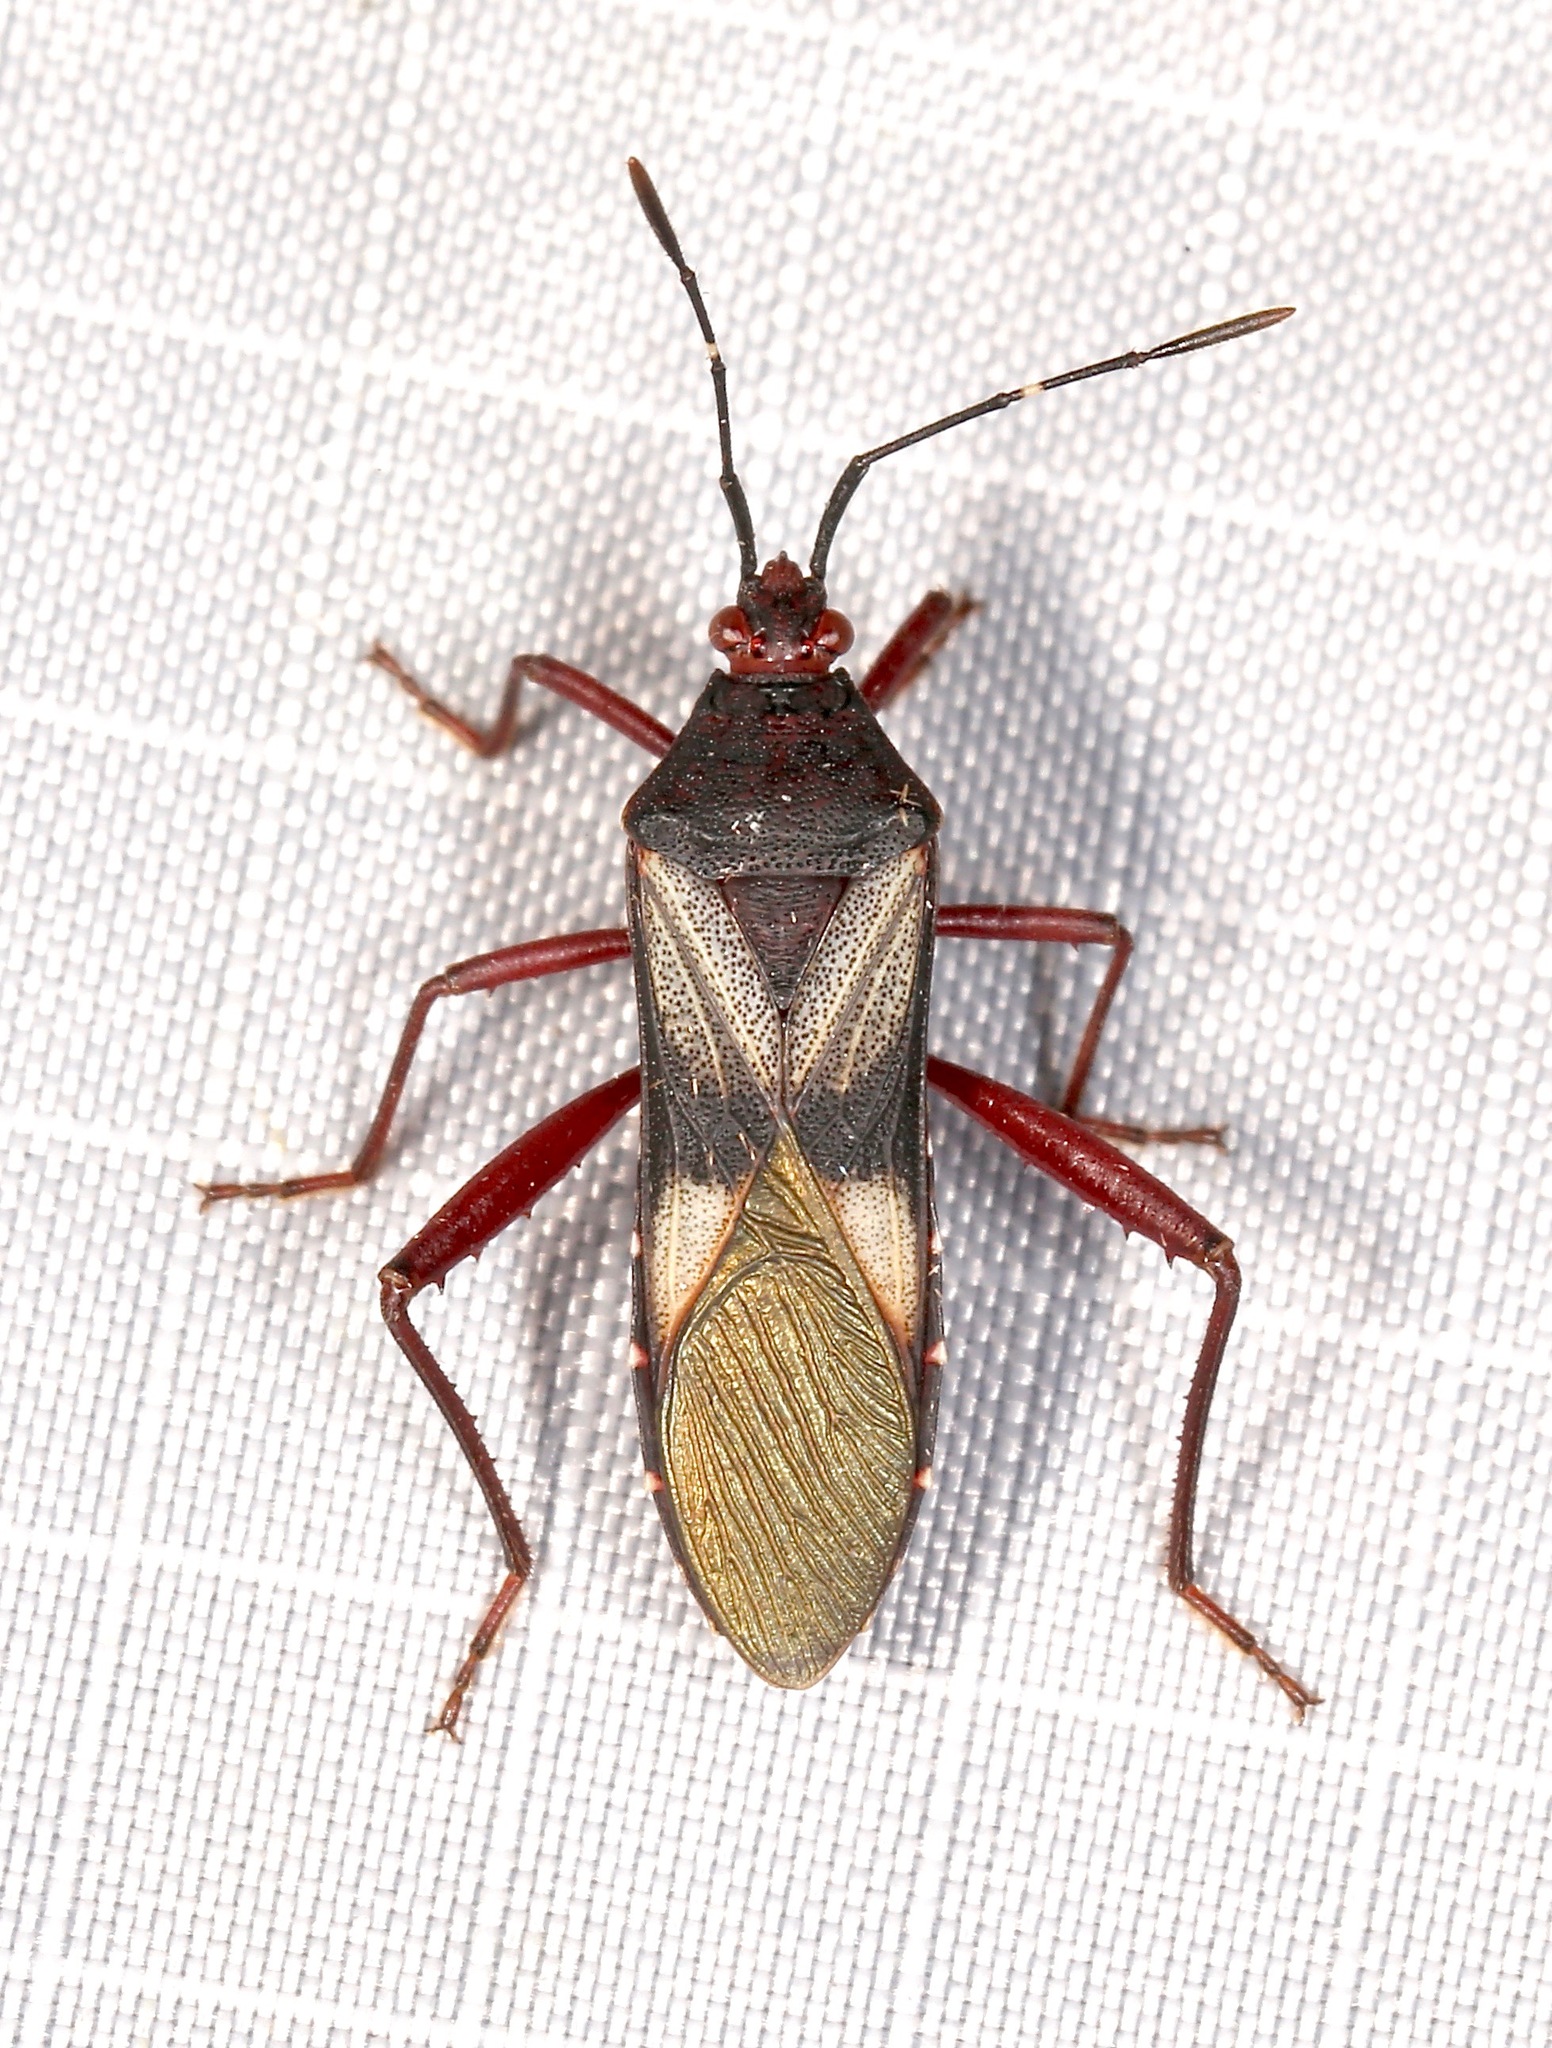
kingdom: Animalia
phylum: Arthropoda
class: Insecta
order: Hemiptera
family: Coreidae
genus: Namacus
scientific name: Namacus annulicornis
